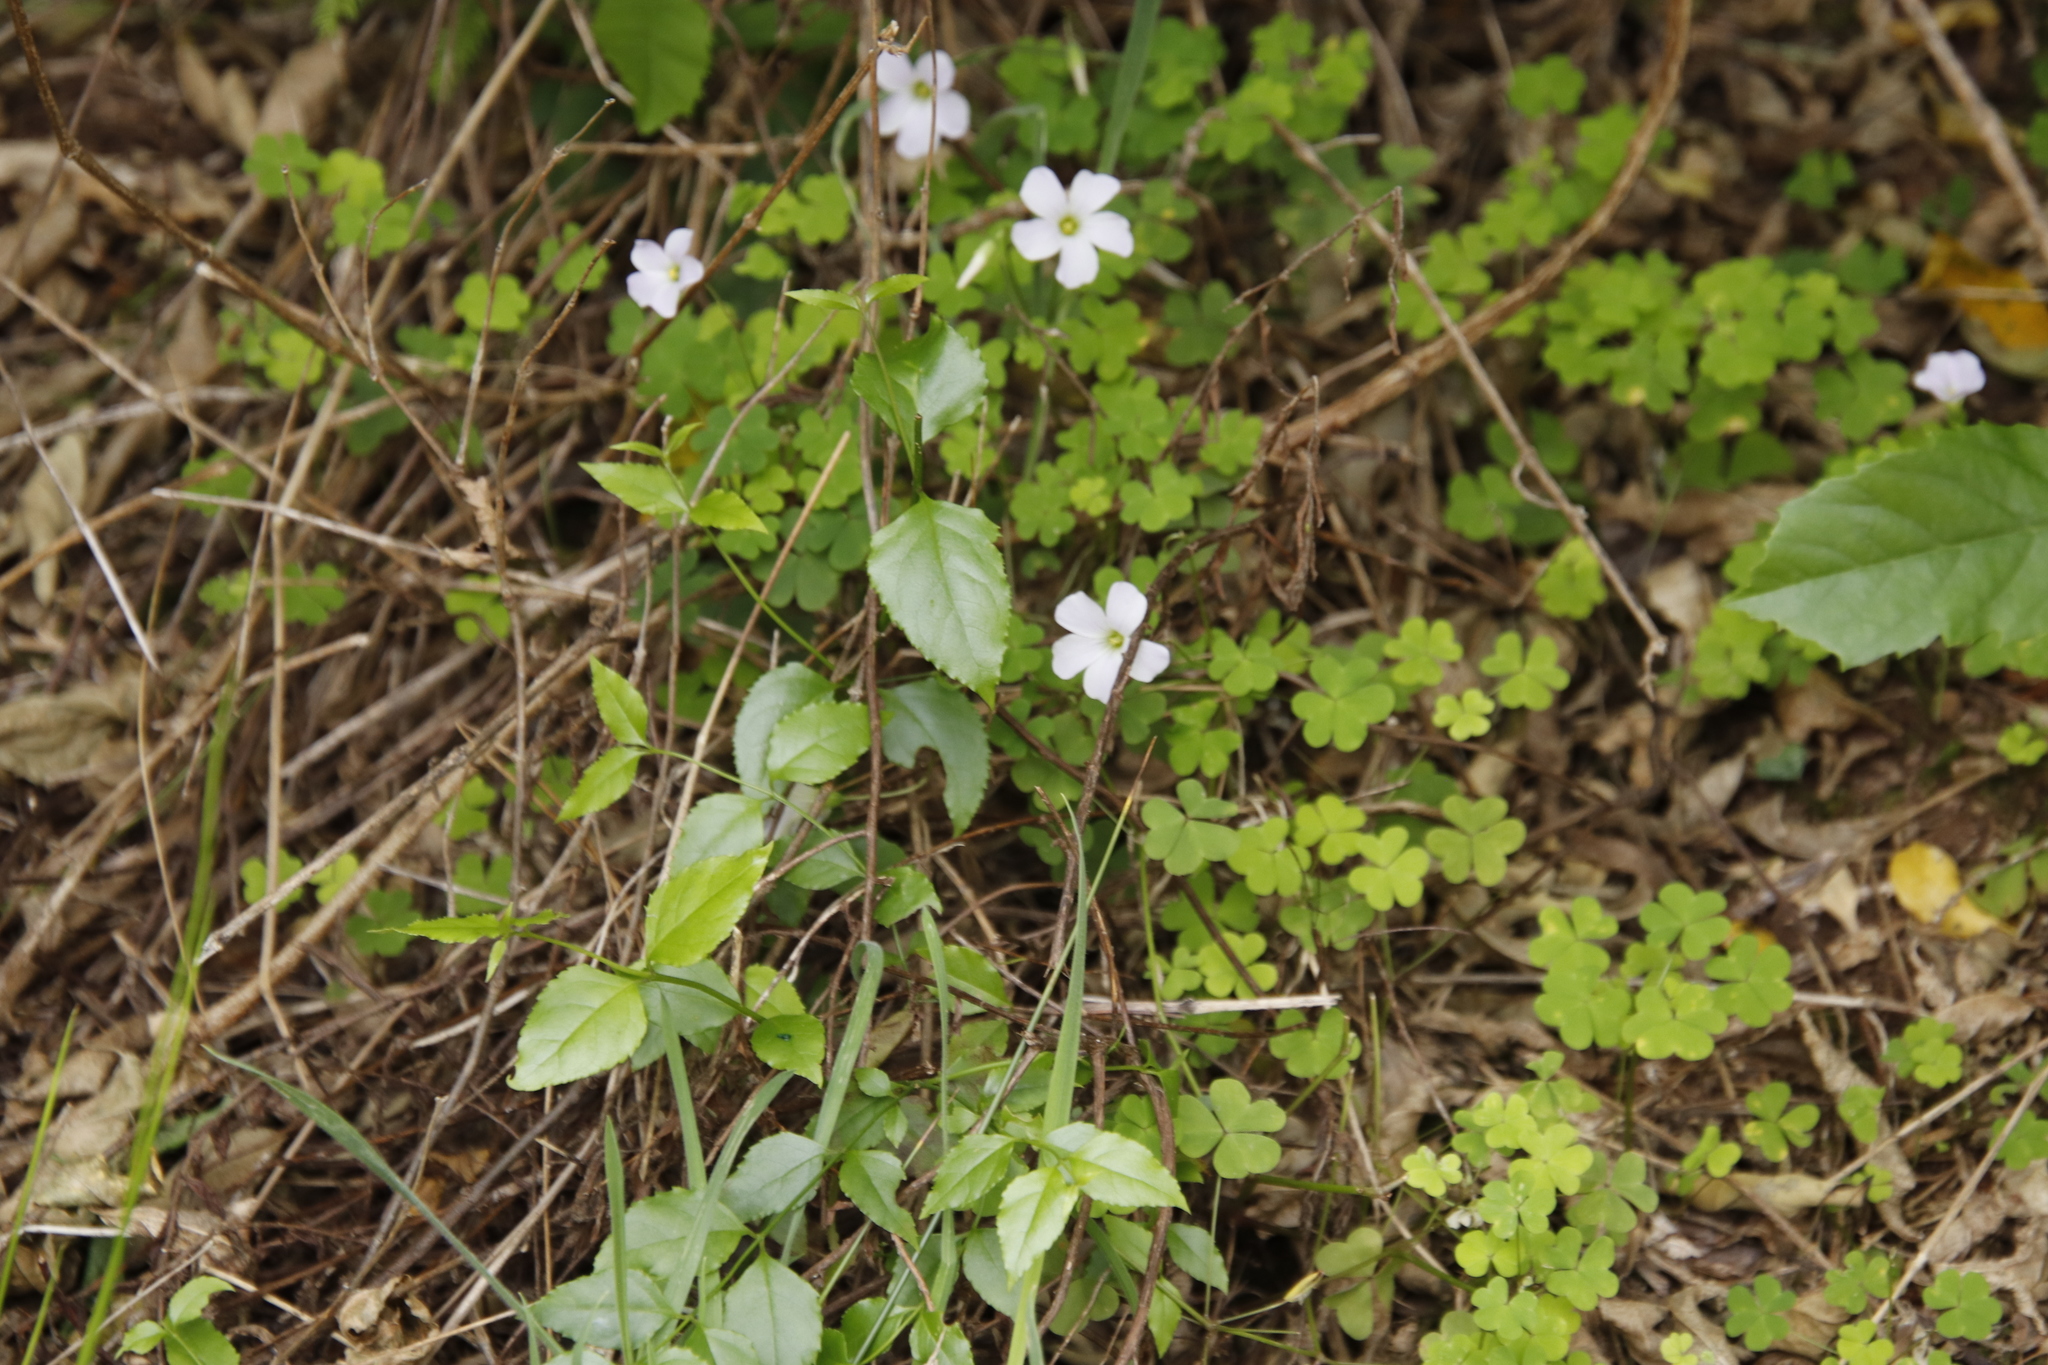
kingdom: Plantae
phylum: Tracheophyta
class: Magnoliopsida
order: Oxalidales
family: Oxalidaceae
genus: Oxalis
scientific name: Oxalis incarnata
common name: Pale pink-sorrel
